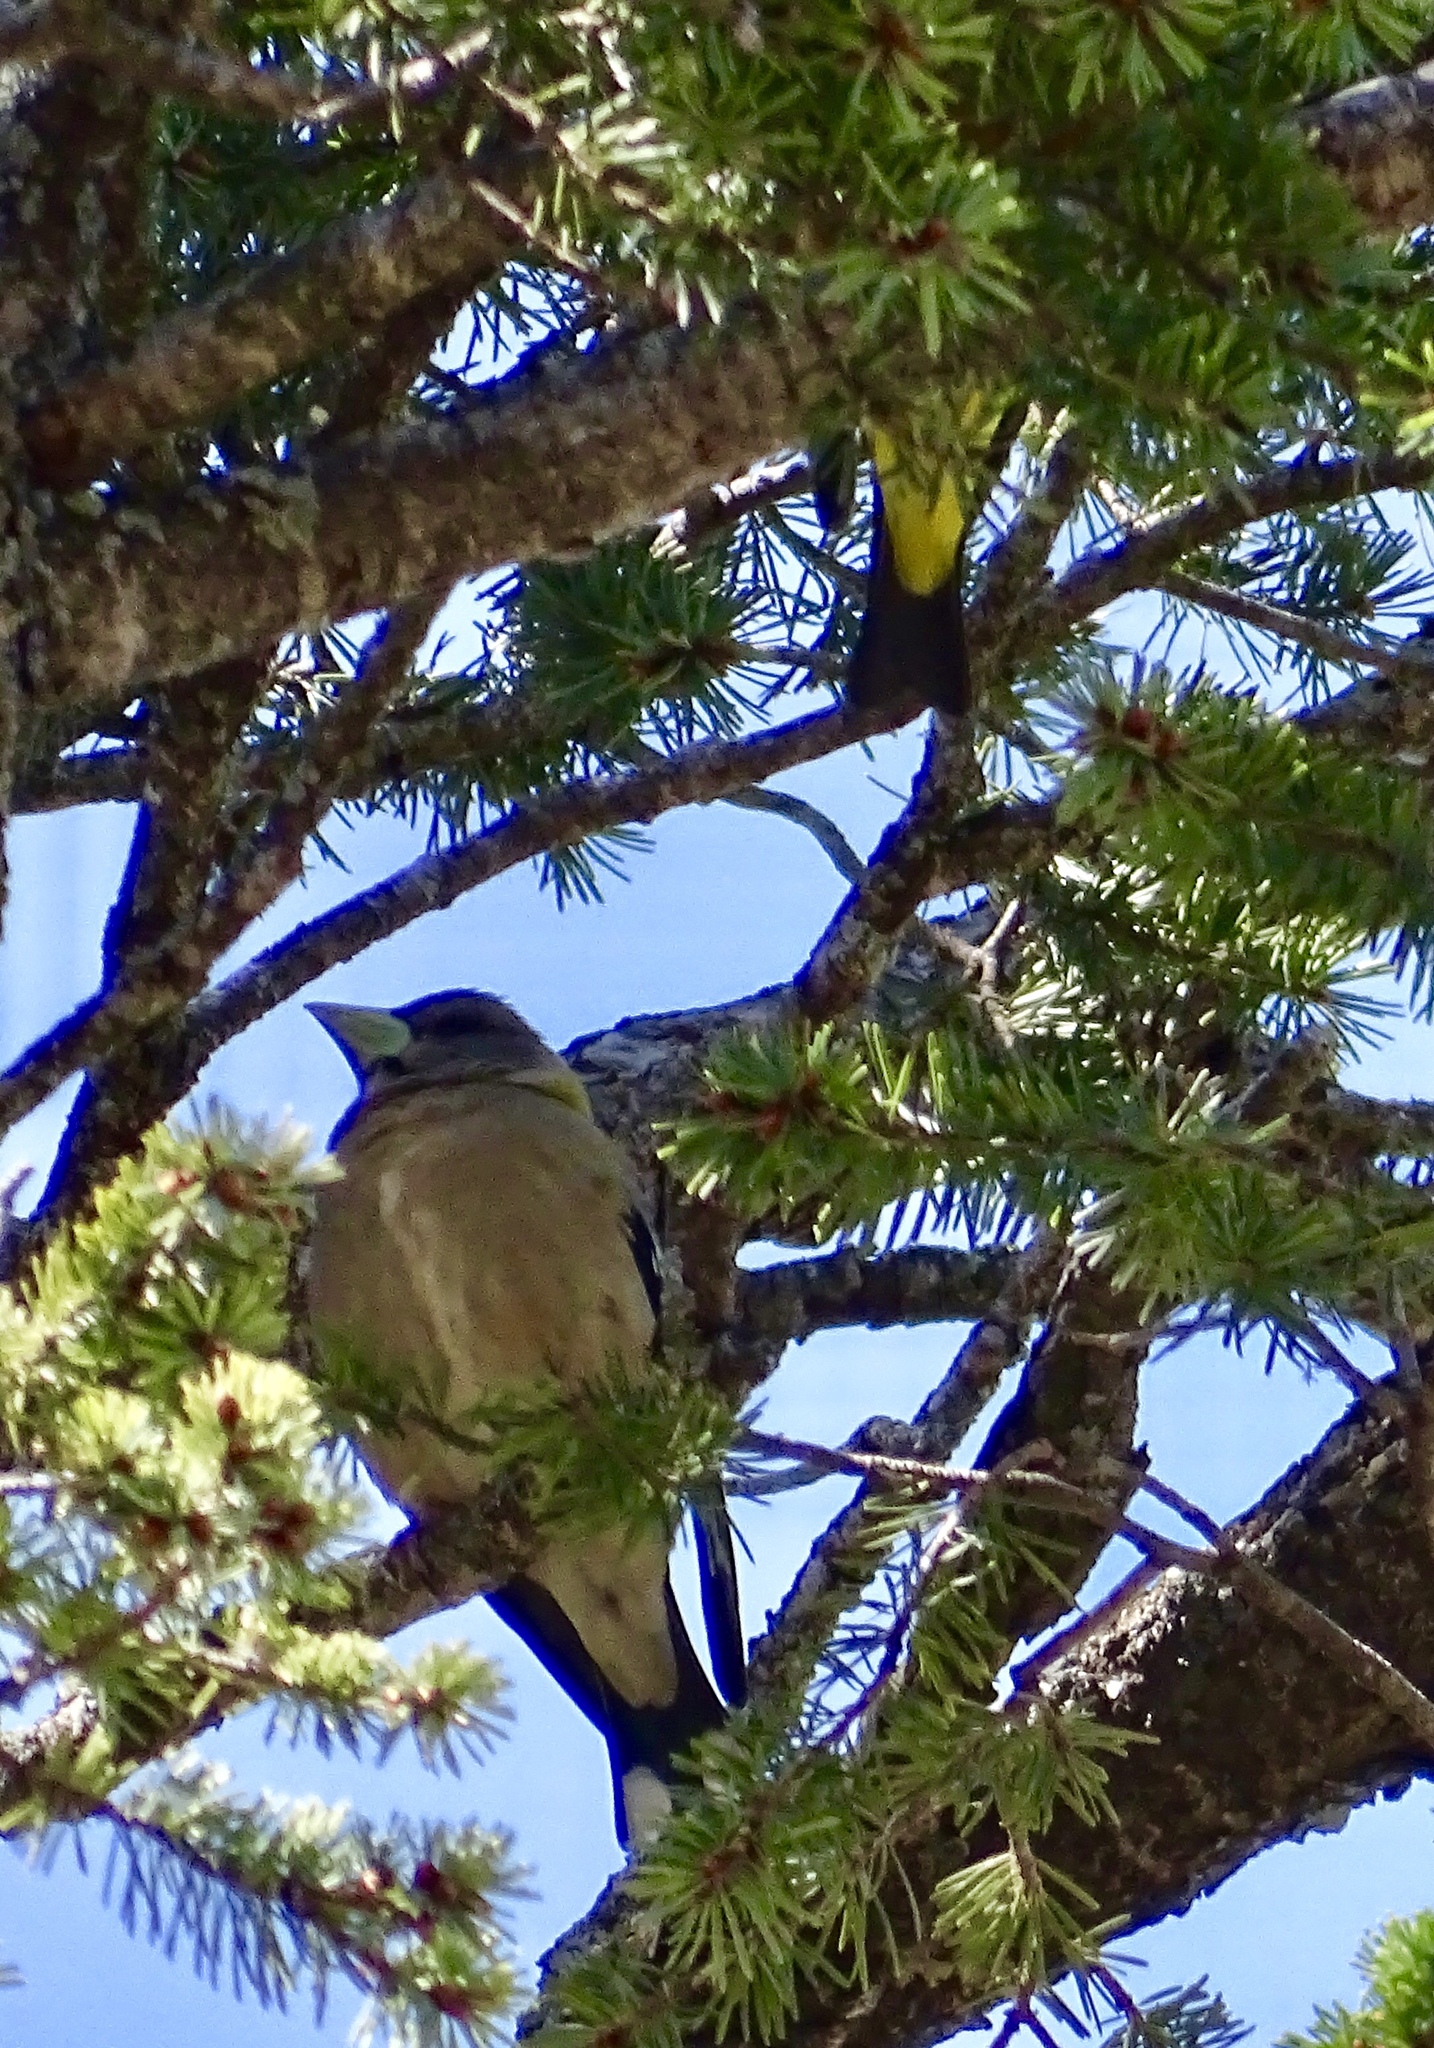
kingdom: Animalia
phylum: Chordata
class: Aves
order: Passeriformes
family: Fringillidae
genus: Hesperiphona
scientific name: Hesperiphona vespertina
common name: Evening grosbeak
